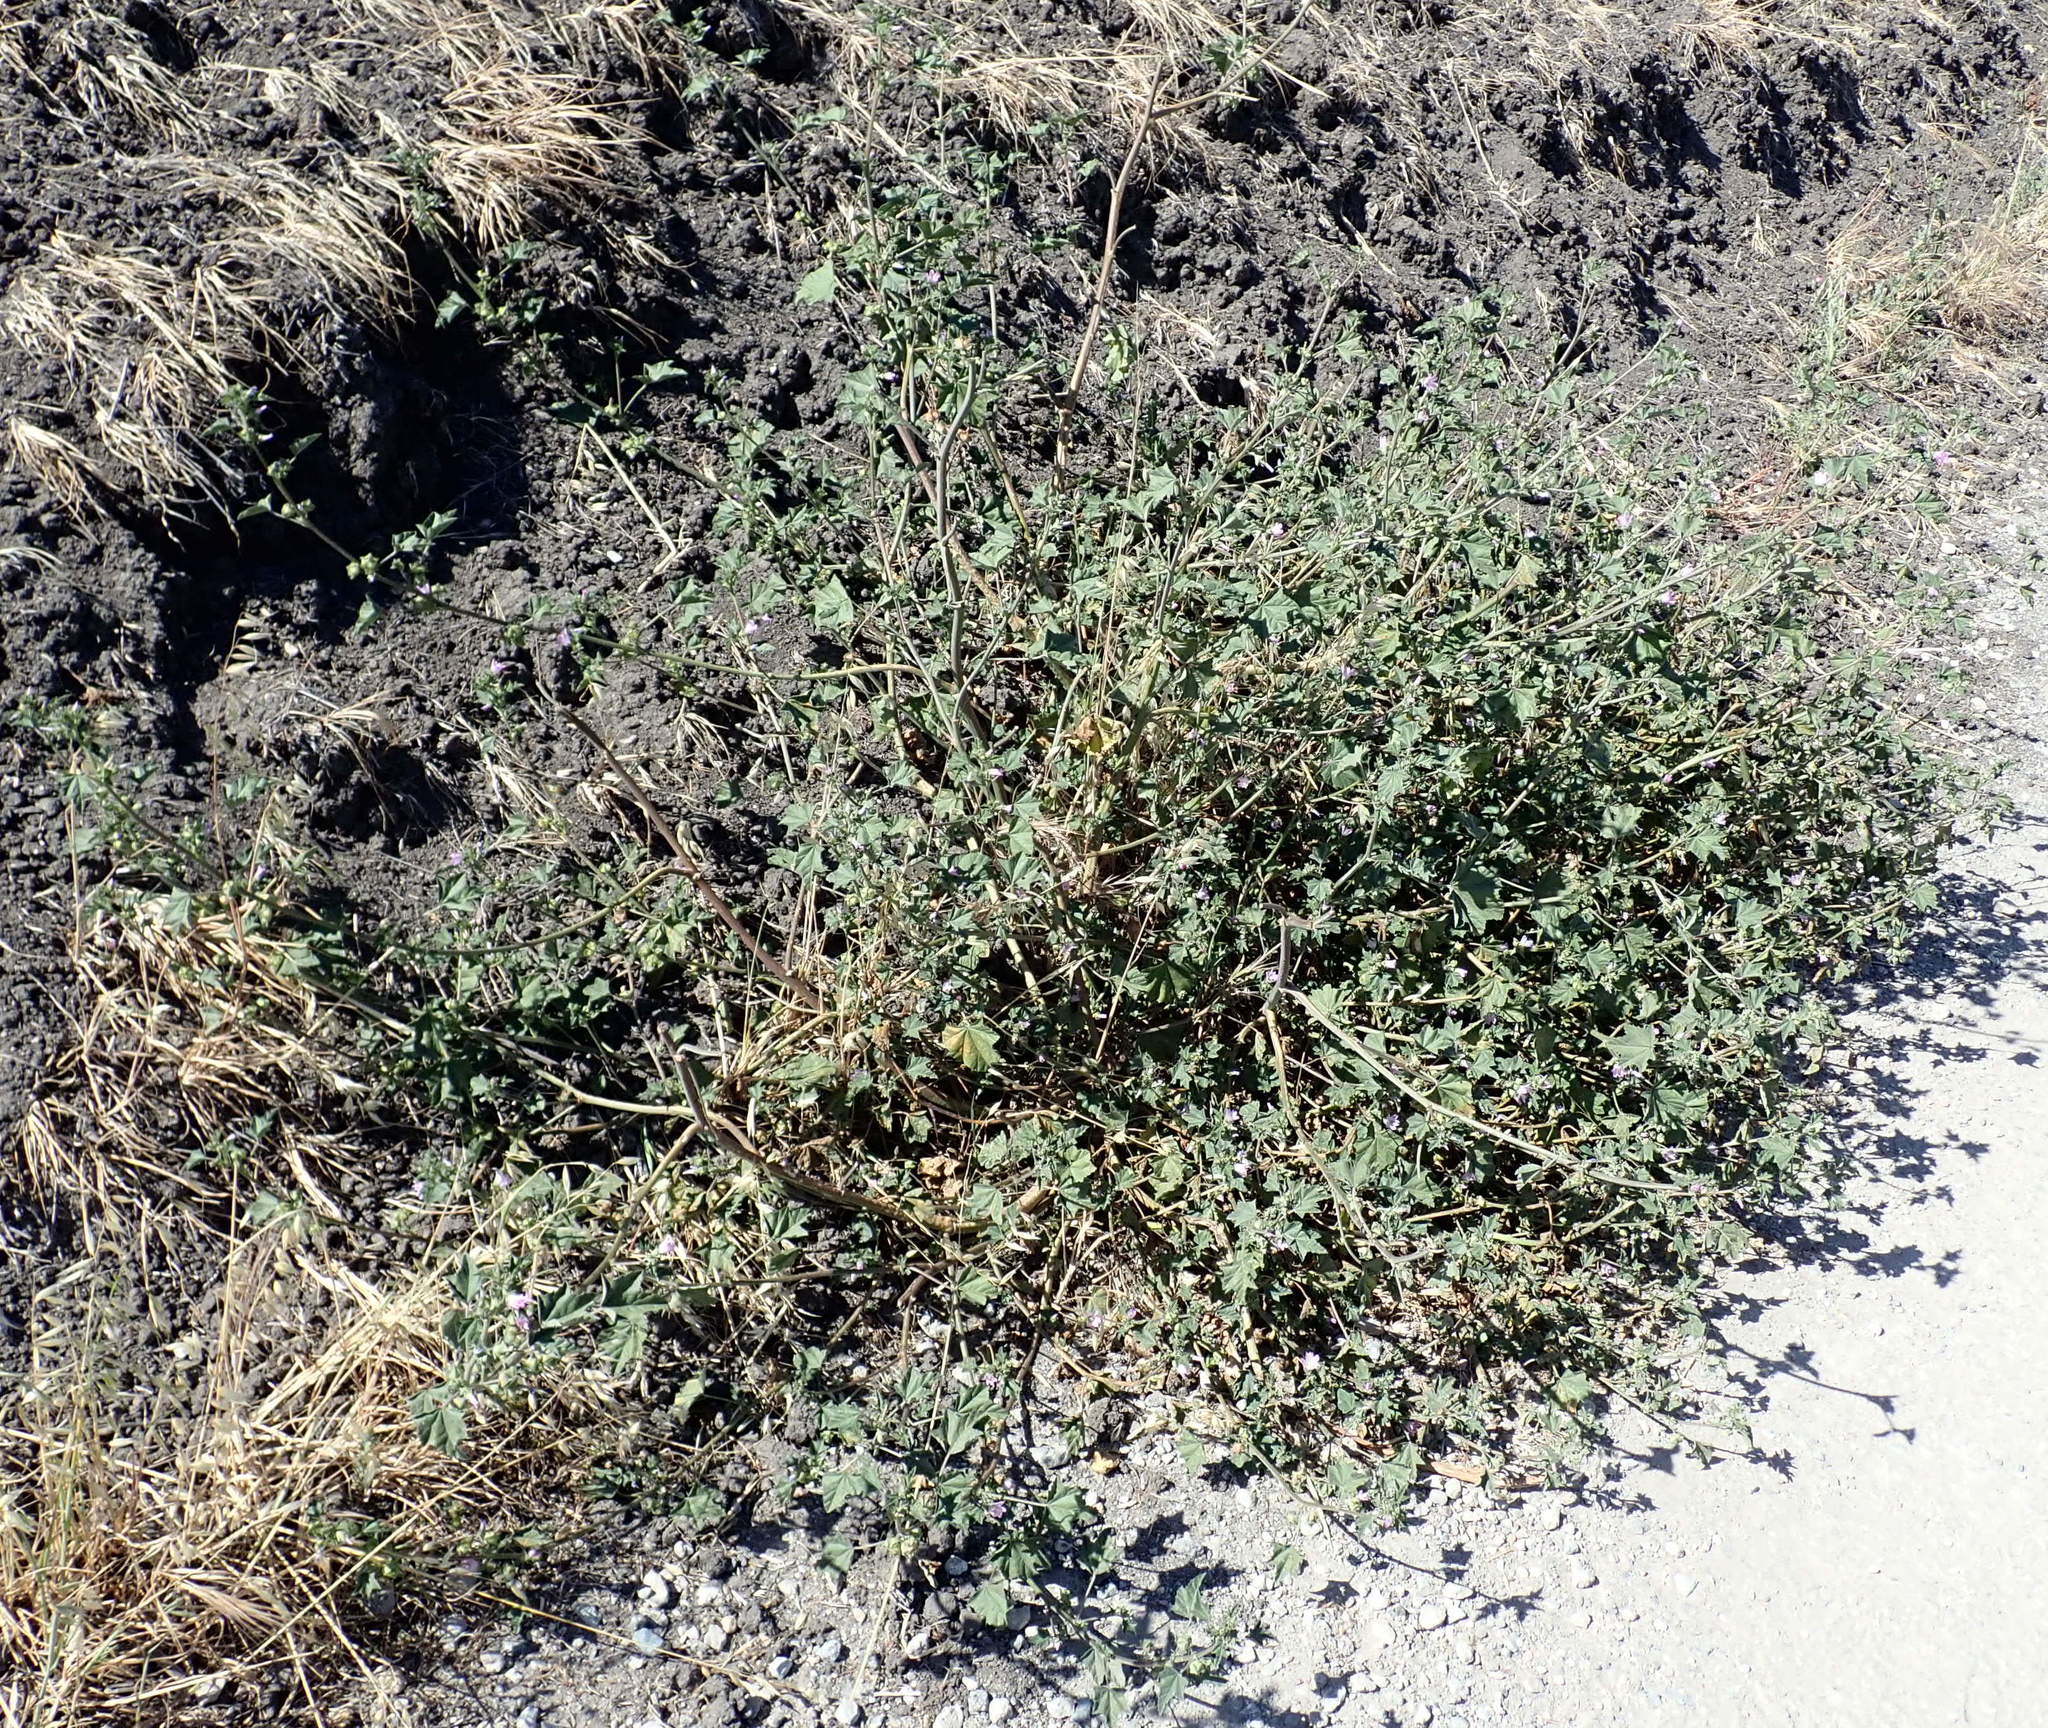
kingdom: Plantae
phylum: Tracheophyta
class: Magnoliopsida
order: Malvales
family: Malvaceae
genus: Malva
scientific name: Malva multiflora
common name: Cheeseweed
